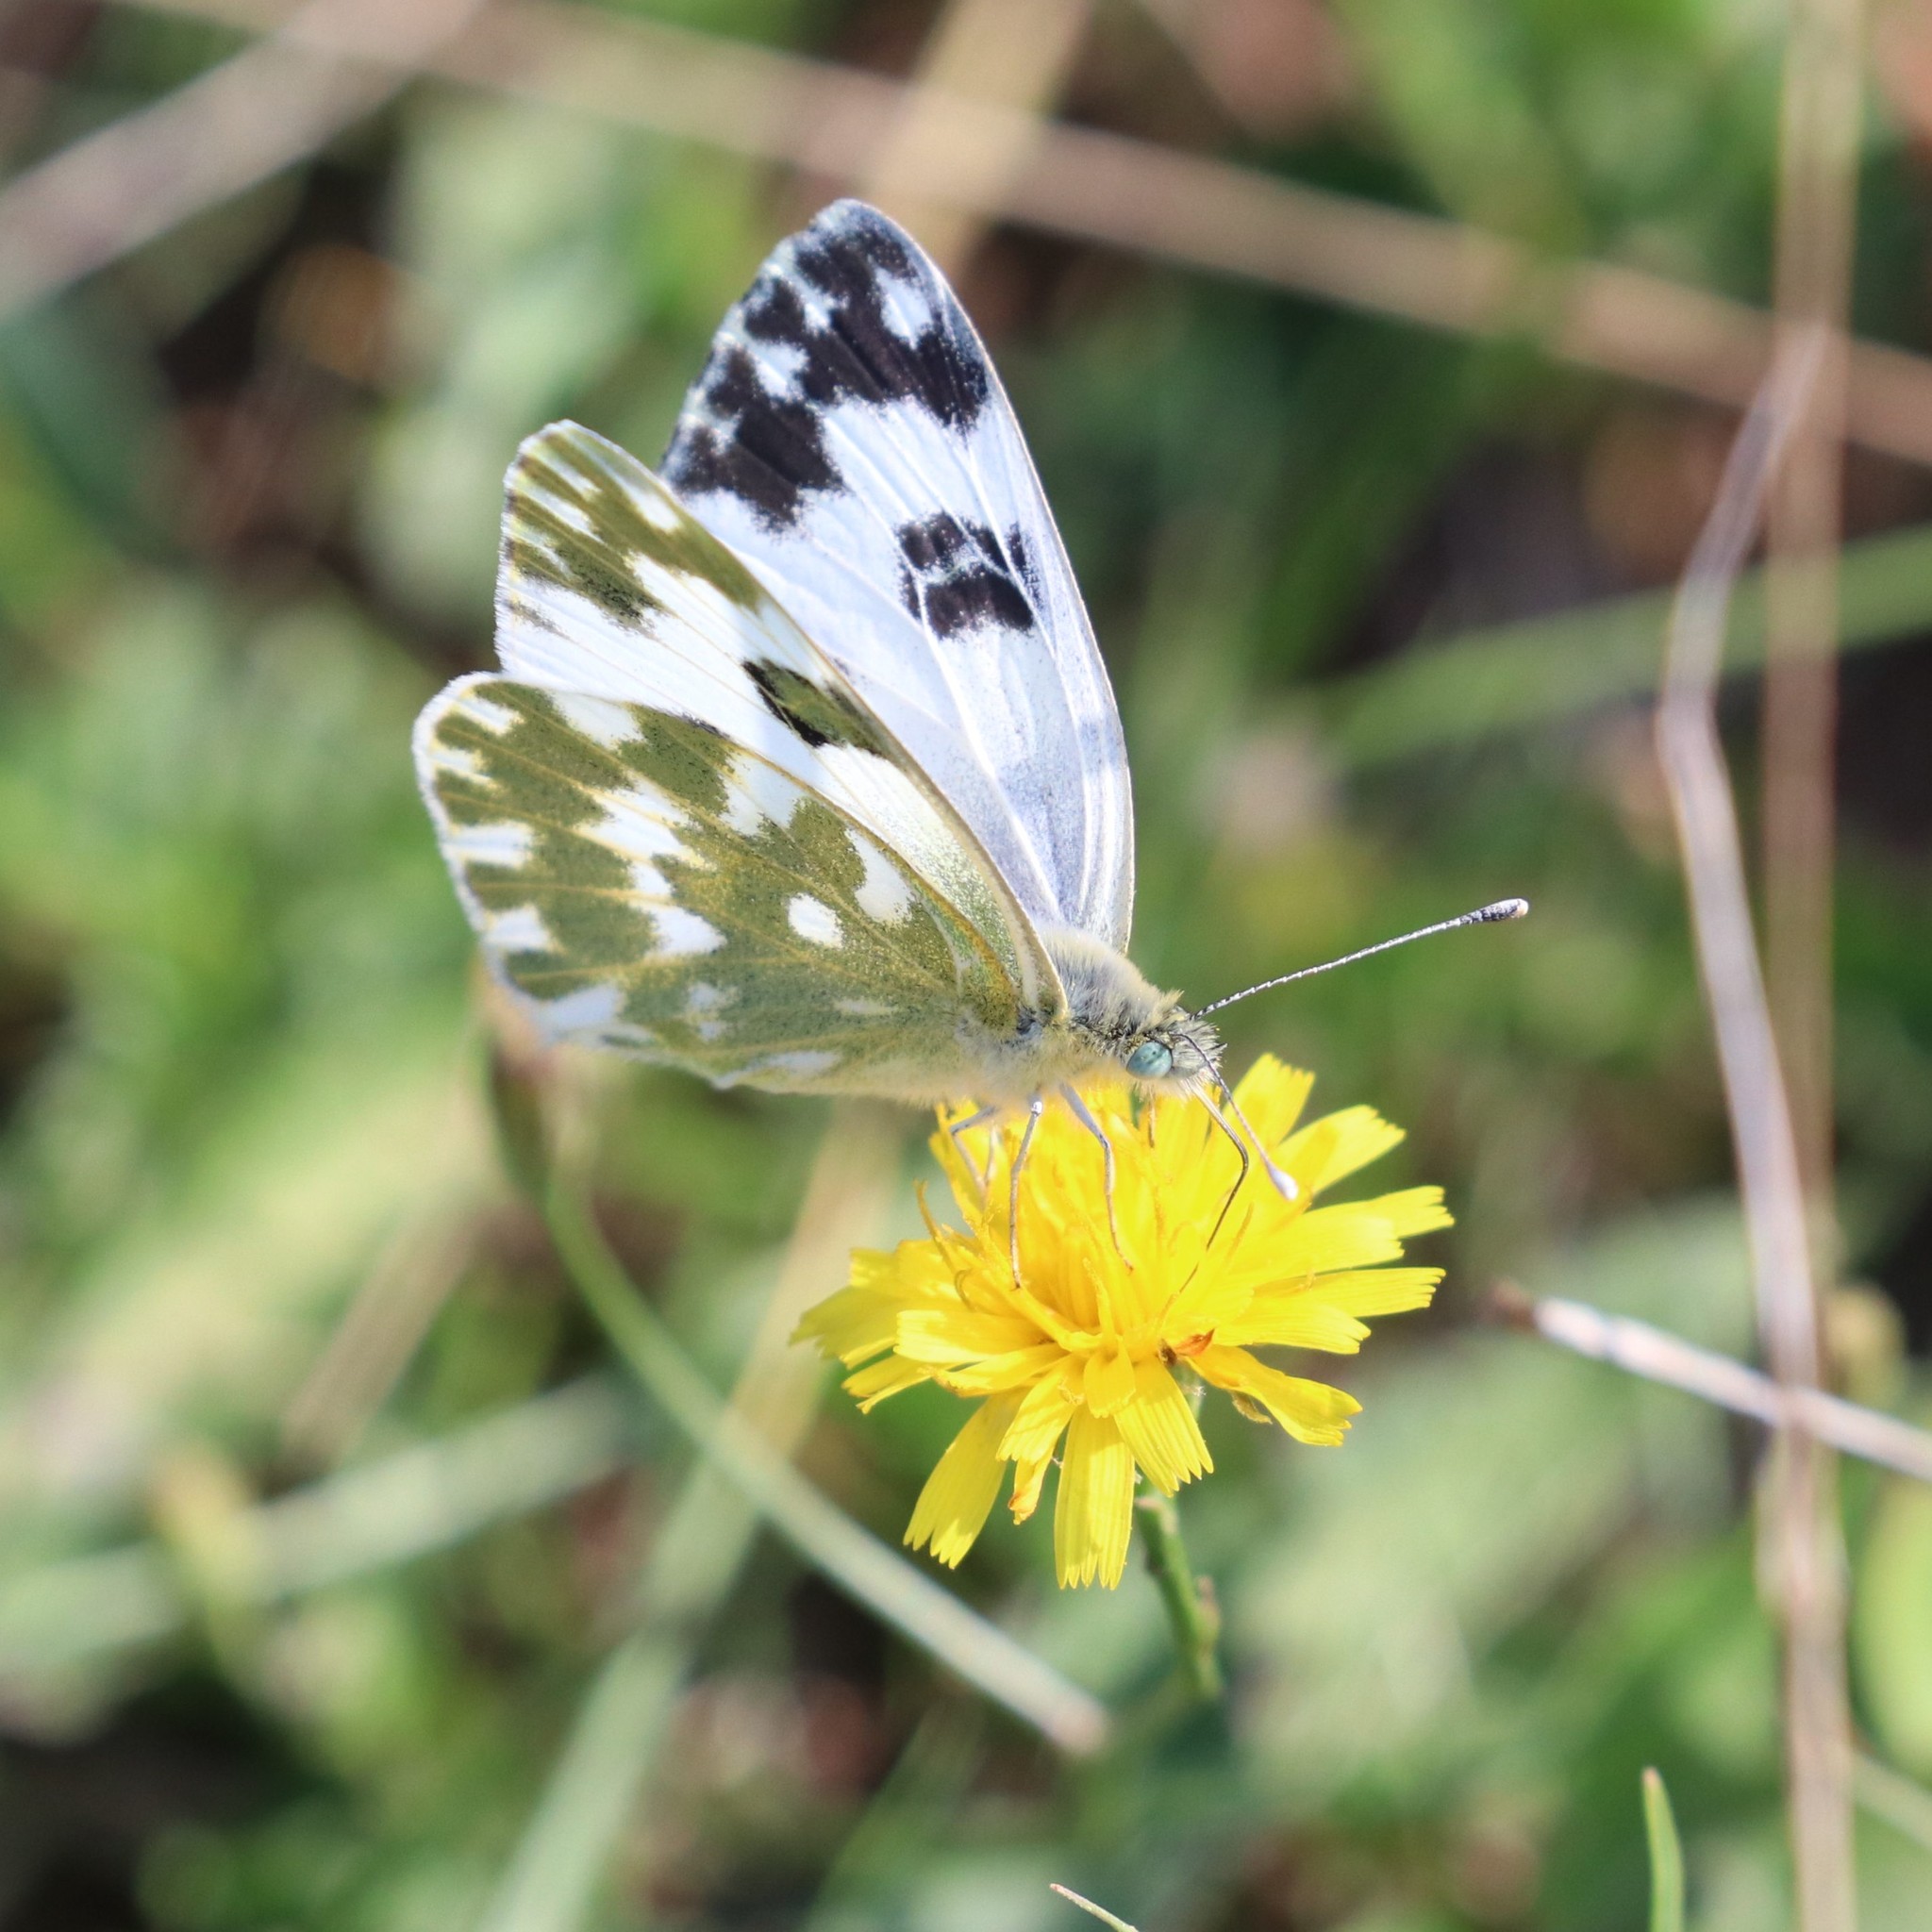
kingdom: Animalia
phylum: Arthropoda
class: Insecta
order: Lepidoptera
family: Pieridae
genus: Pontia
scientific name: Pontia edusa
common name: Eastern bath white
